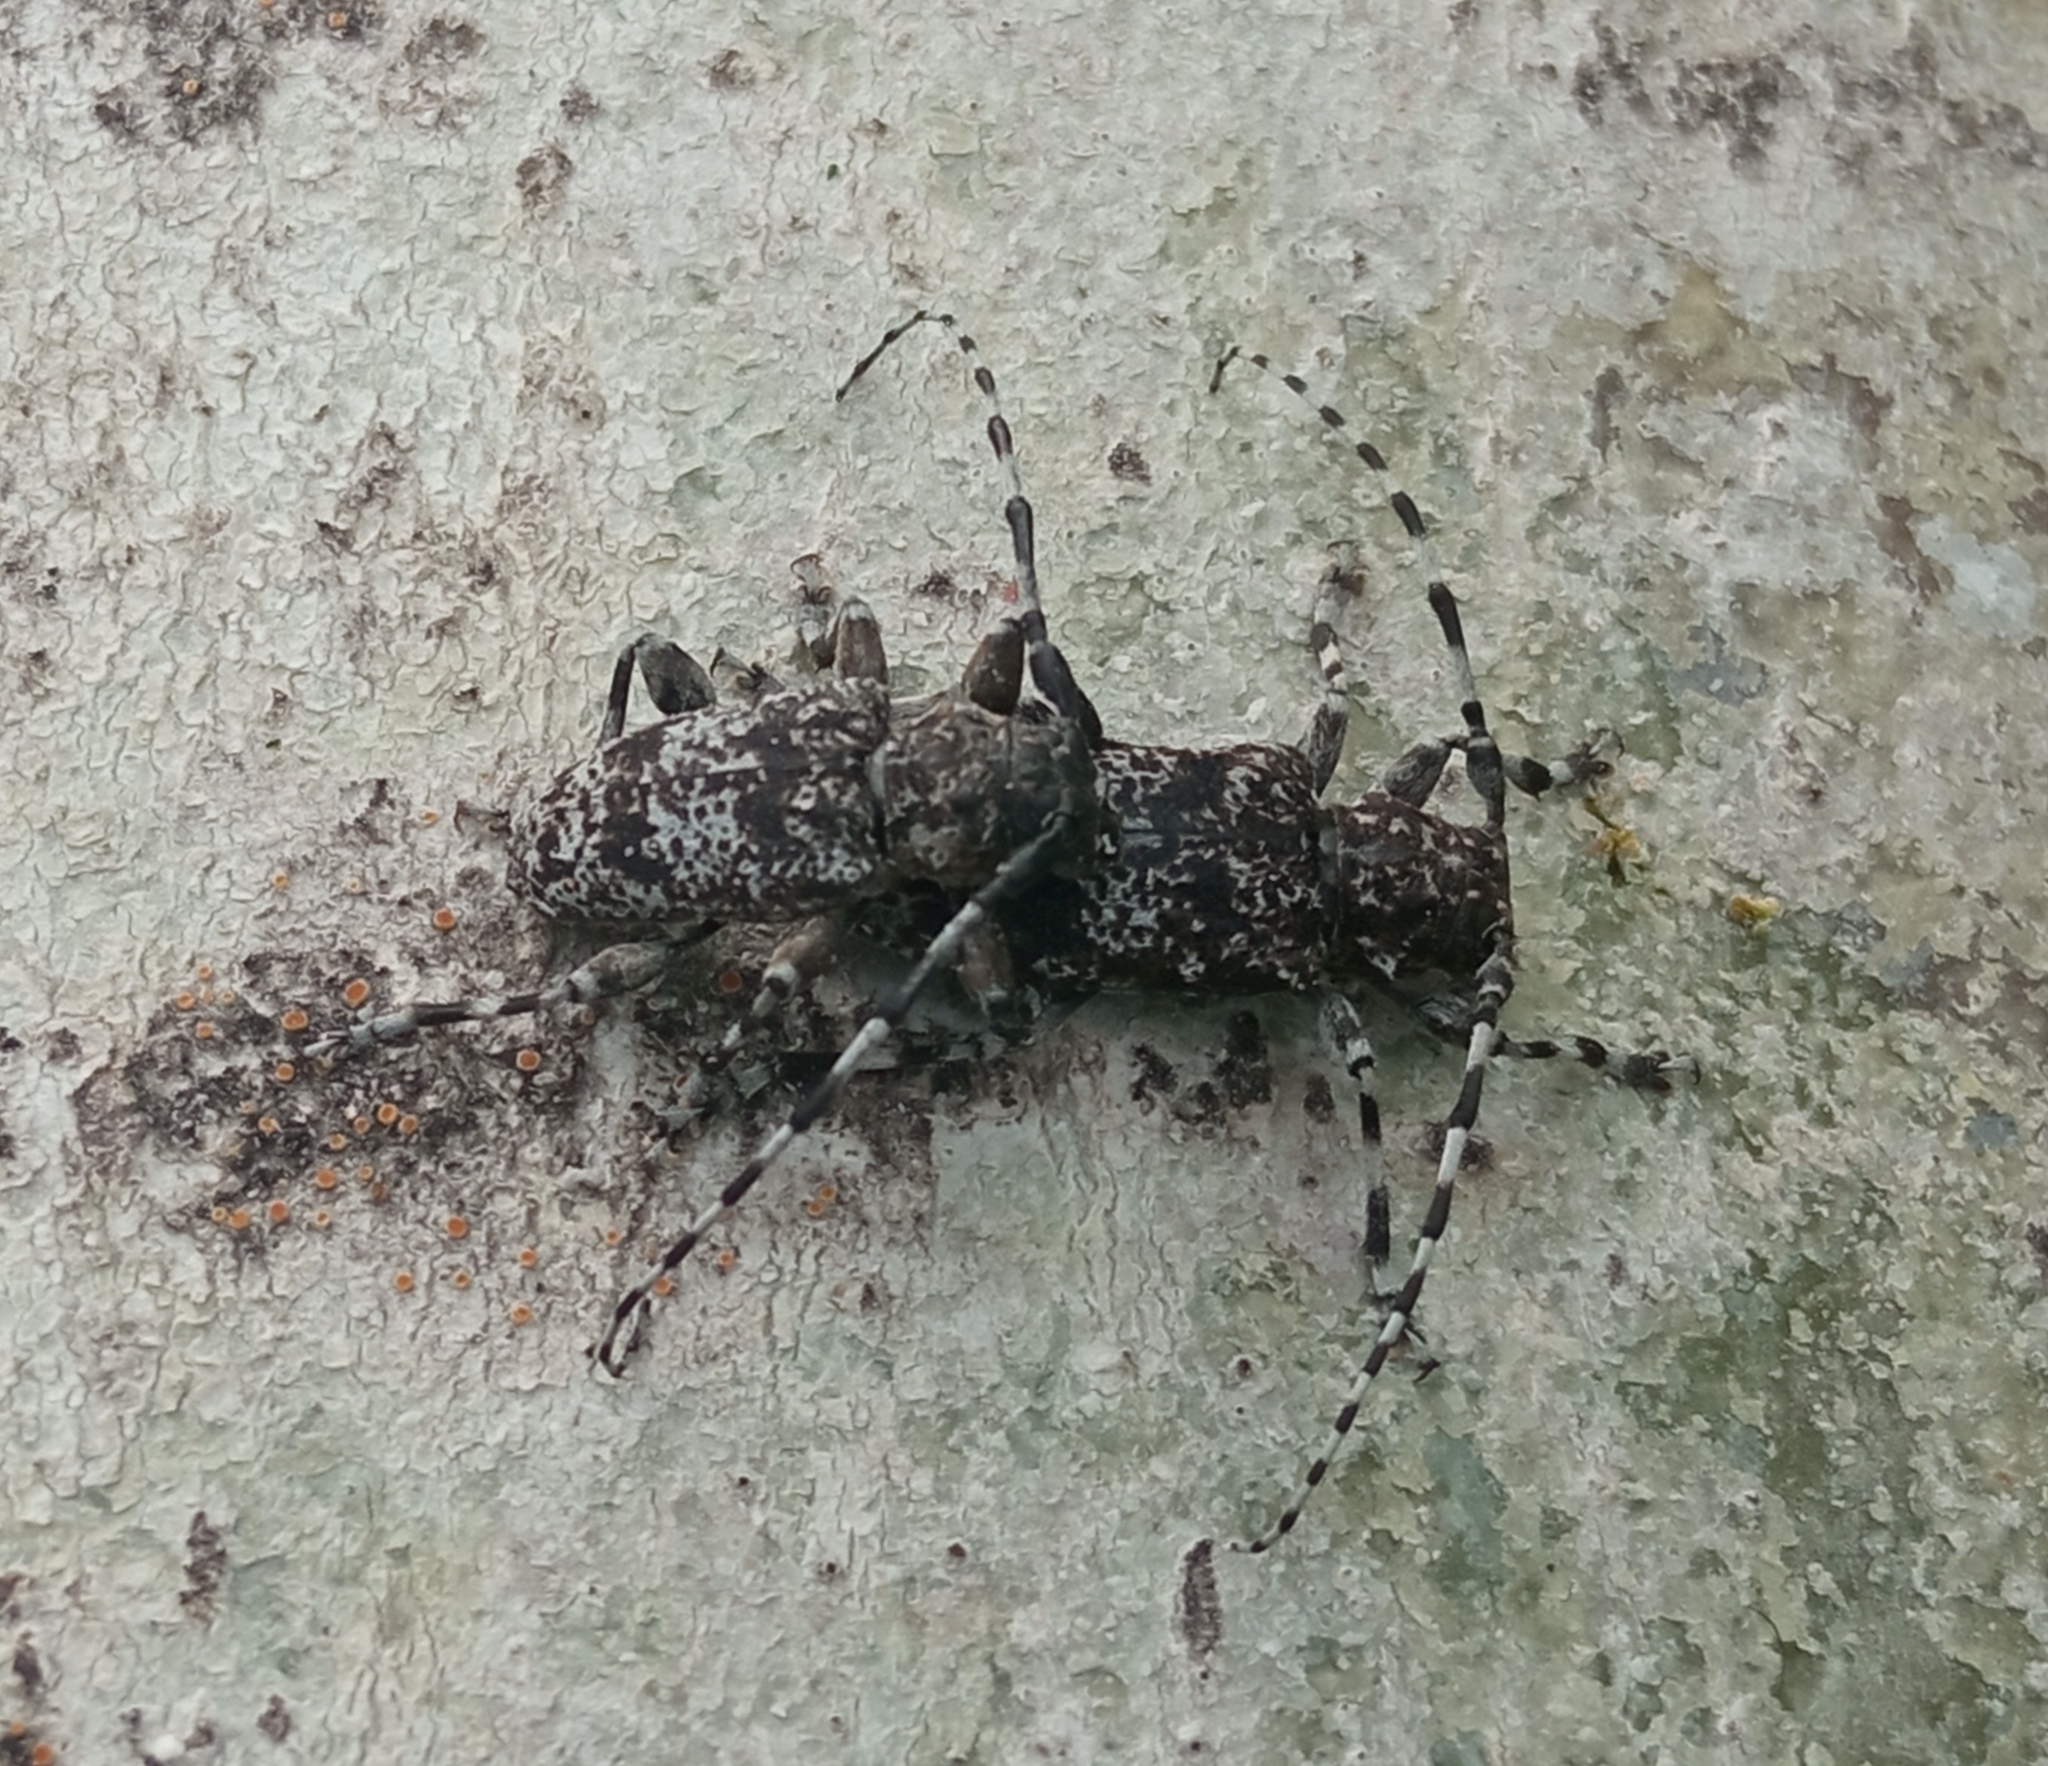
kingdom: Animalia
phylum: Arthropoda
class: Insecta
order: Coleoptera
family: Cerambycidae
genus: Aegomorphus
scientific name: Aegomorphus clavipes
